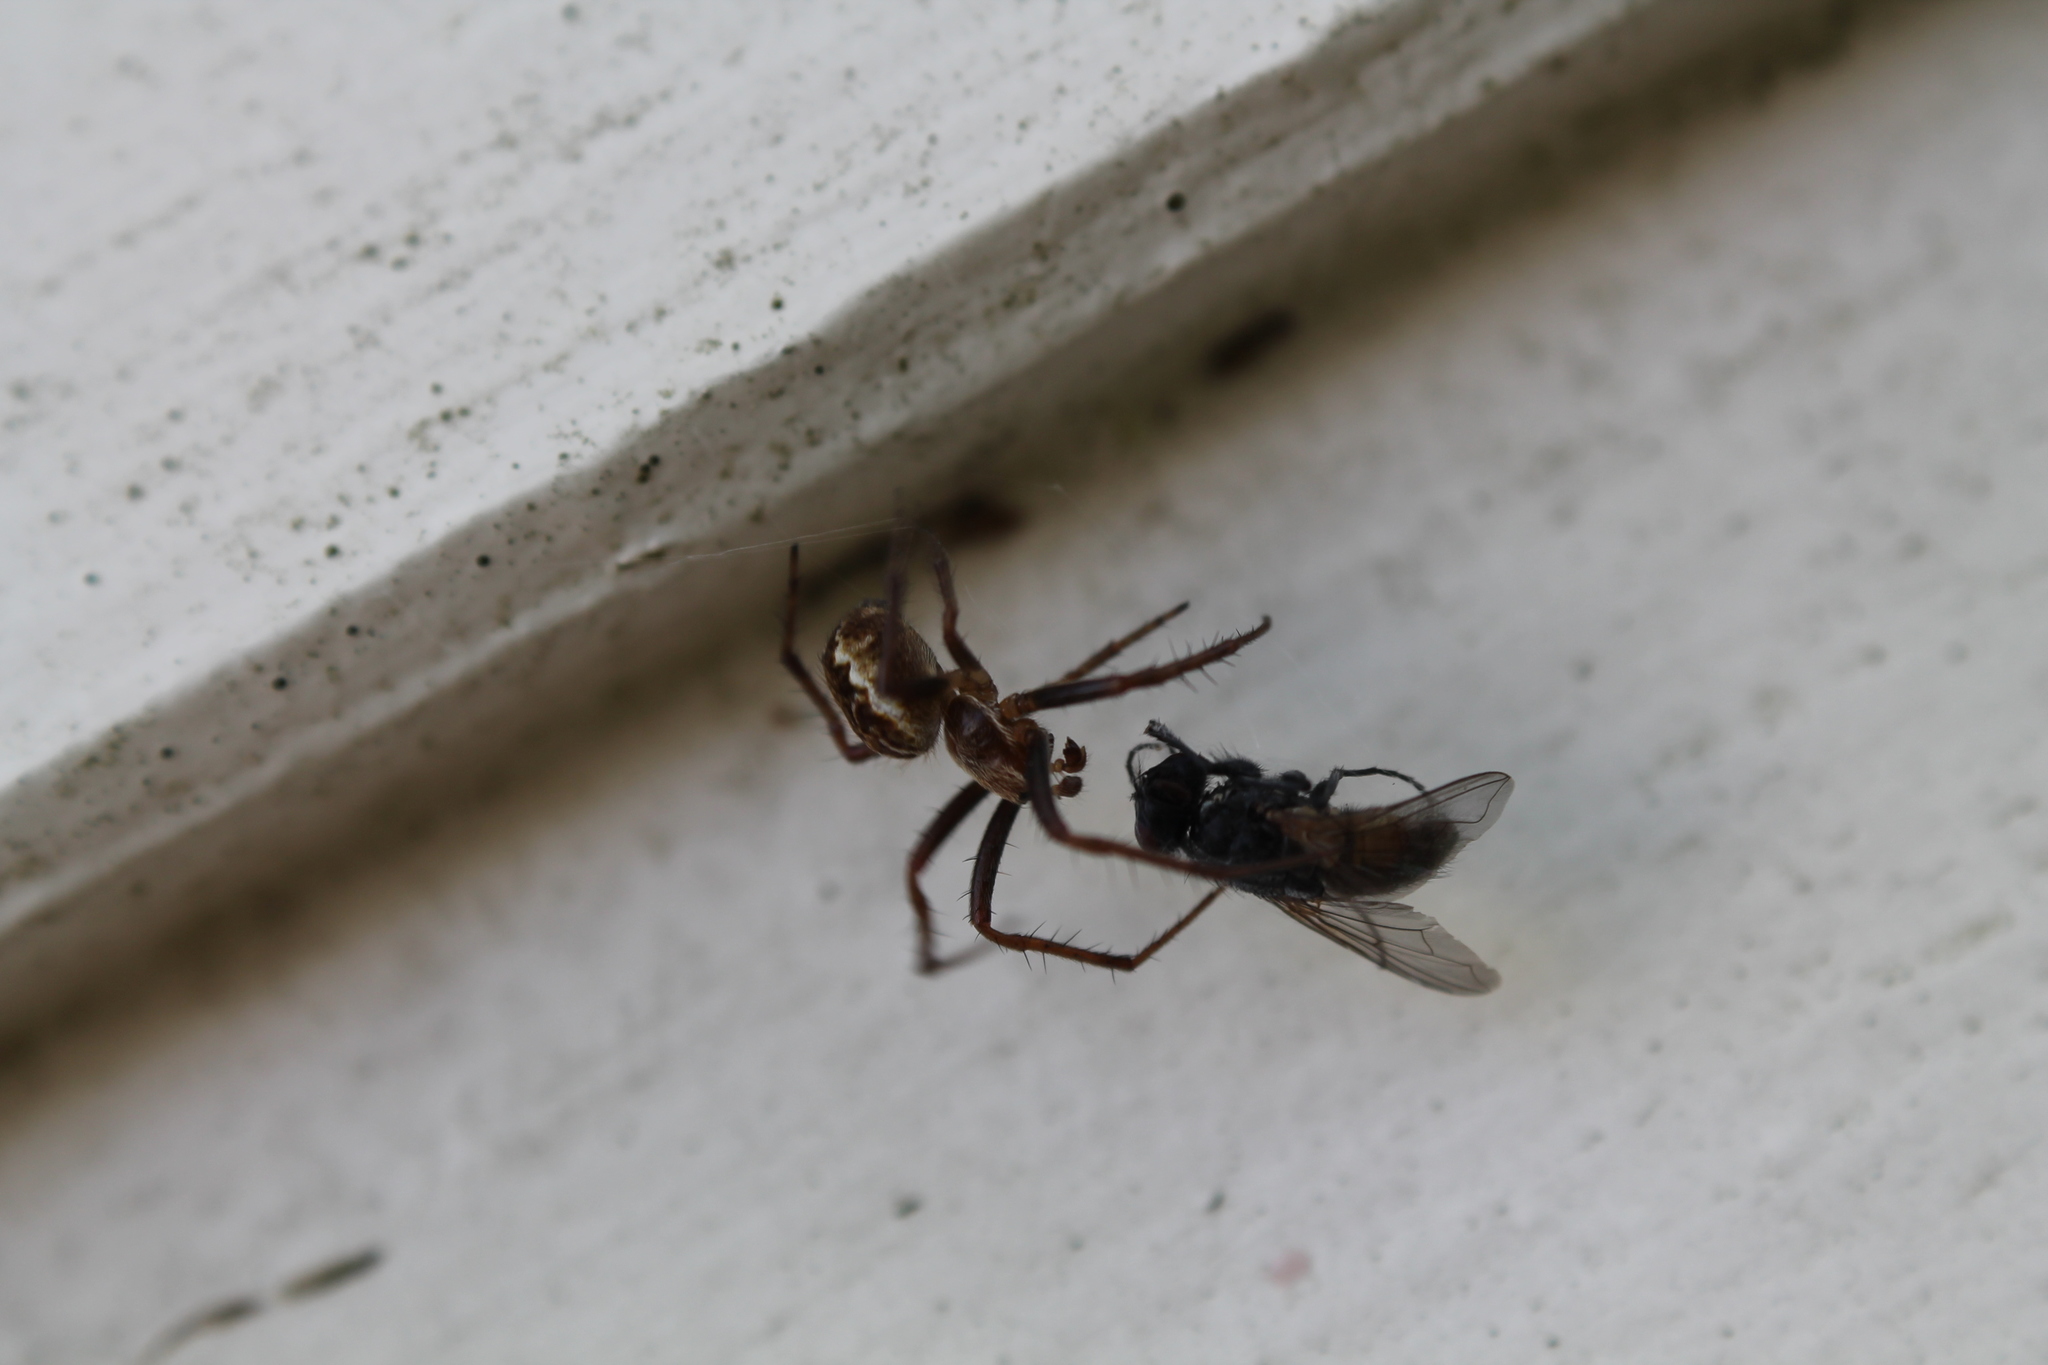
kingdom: Animalia
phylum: Arthropoda
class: Arachnida
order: Araneae
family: Araneidae
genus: Salsa
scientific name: Salsa fuliginata
